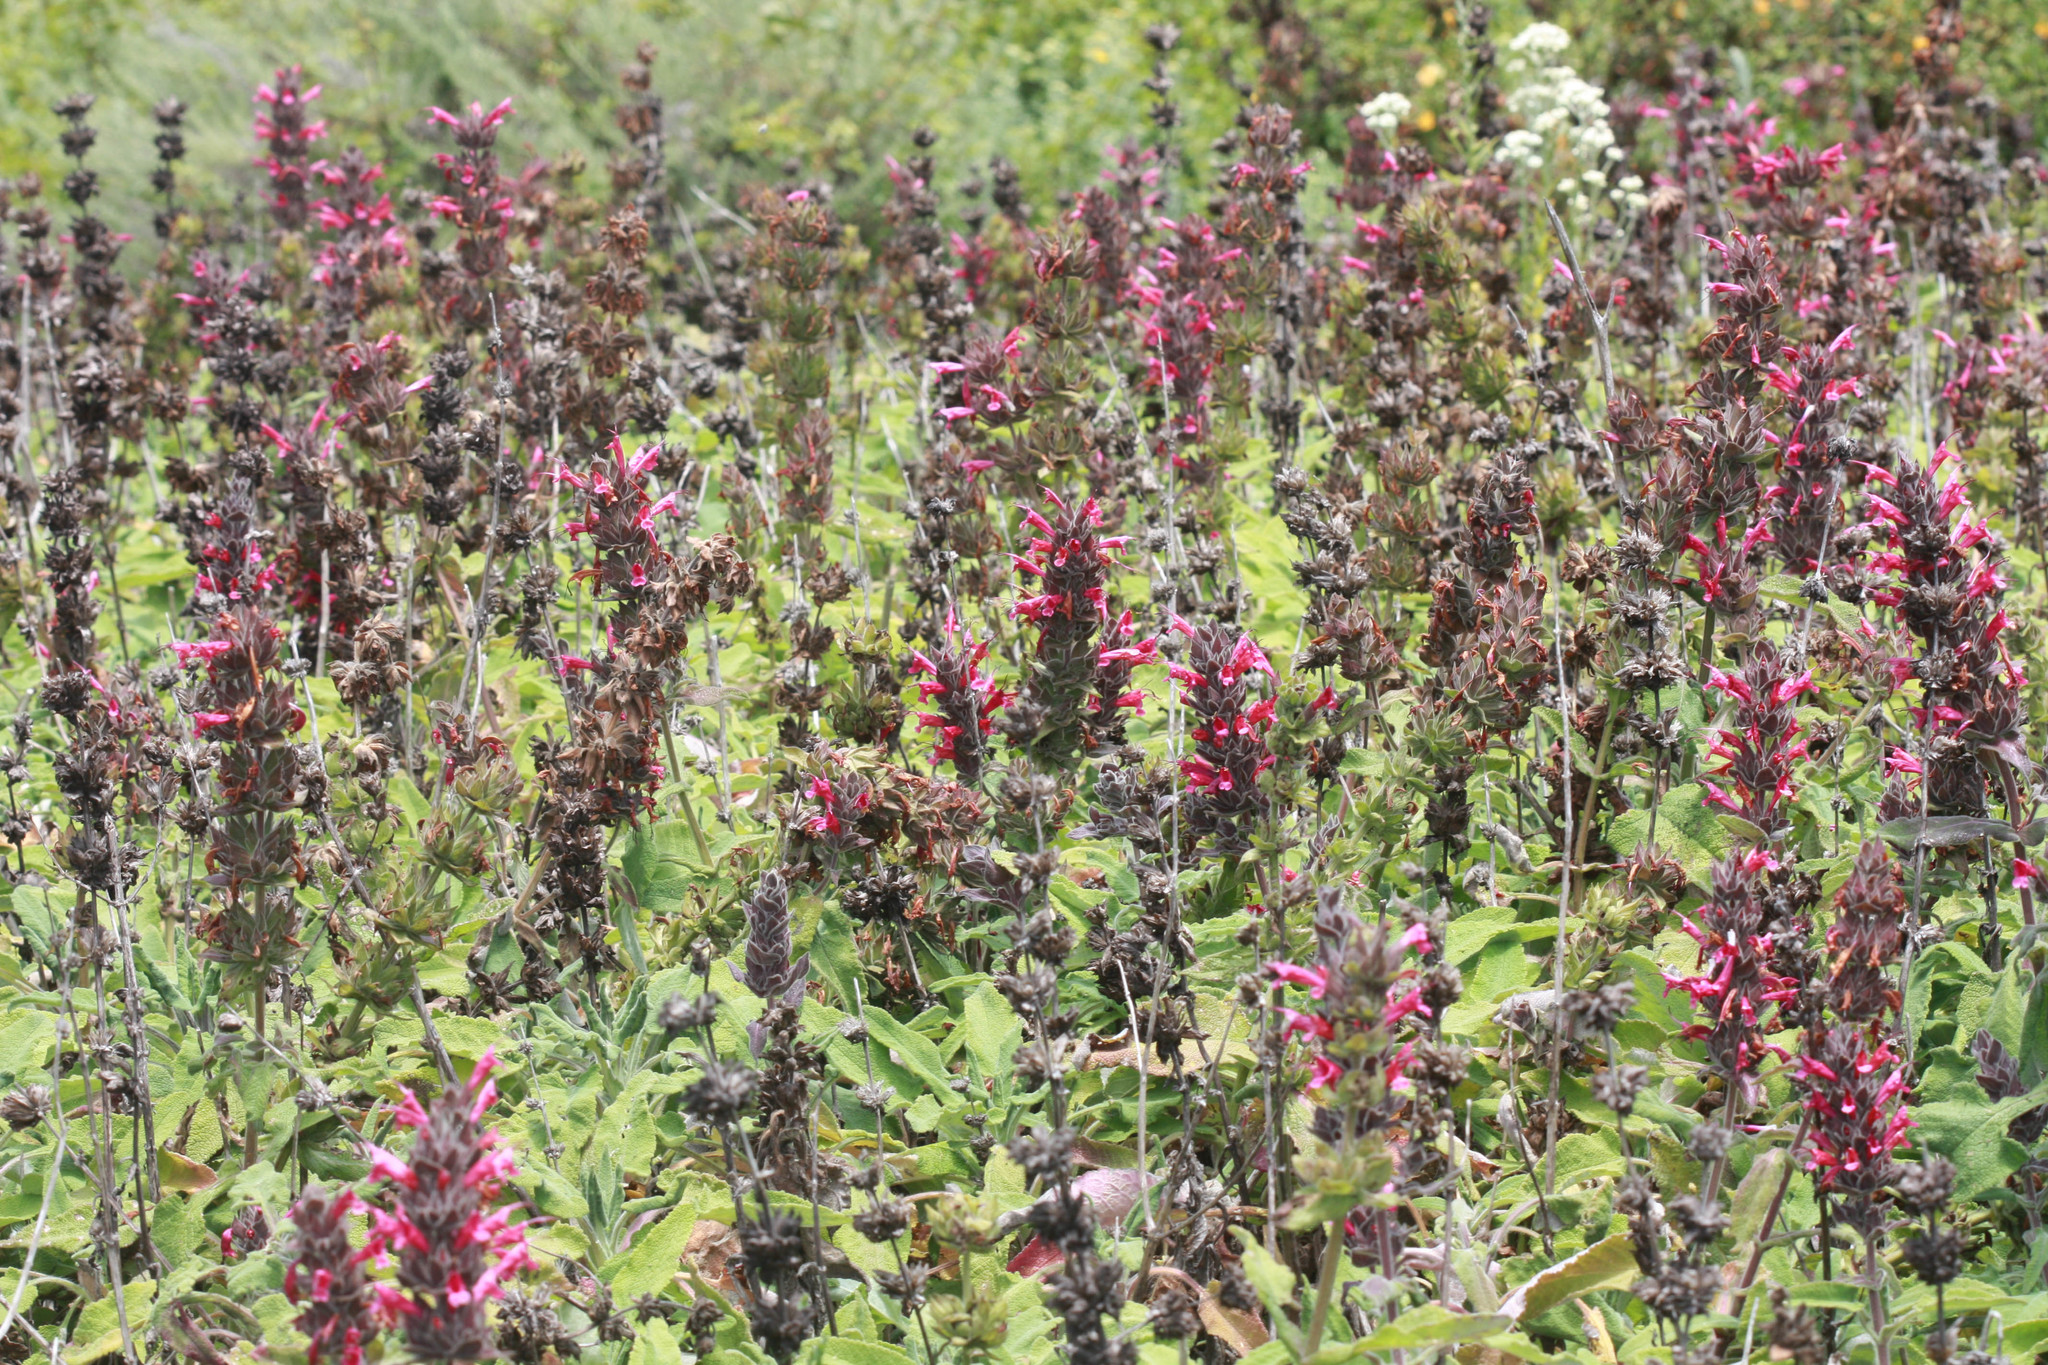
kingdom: Plantae
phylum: Tracheophyta
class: Magnoliopsida
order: Lamiales
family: Lamiaceae
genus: Salvia
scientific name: Salvia spathacea
